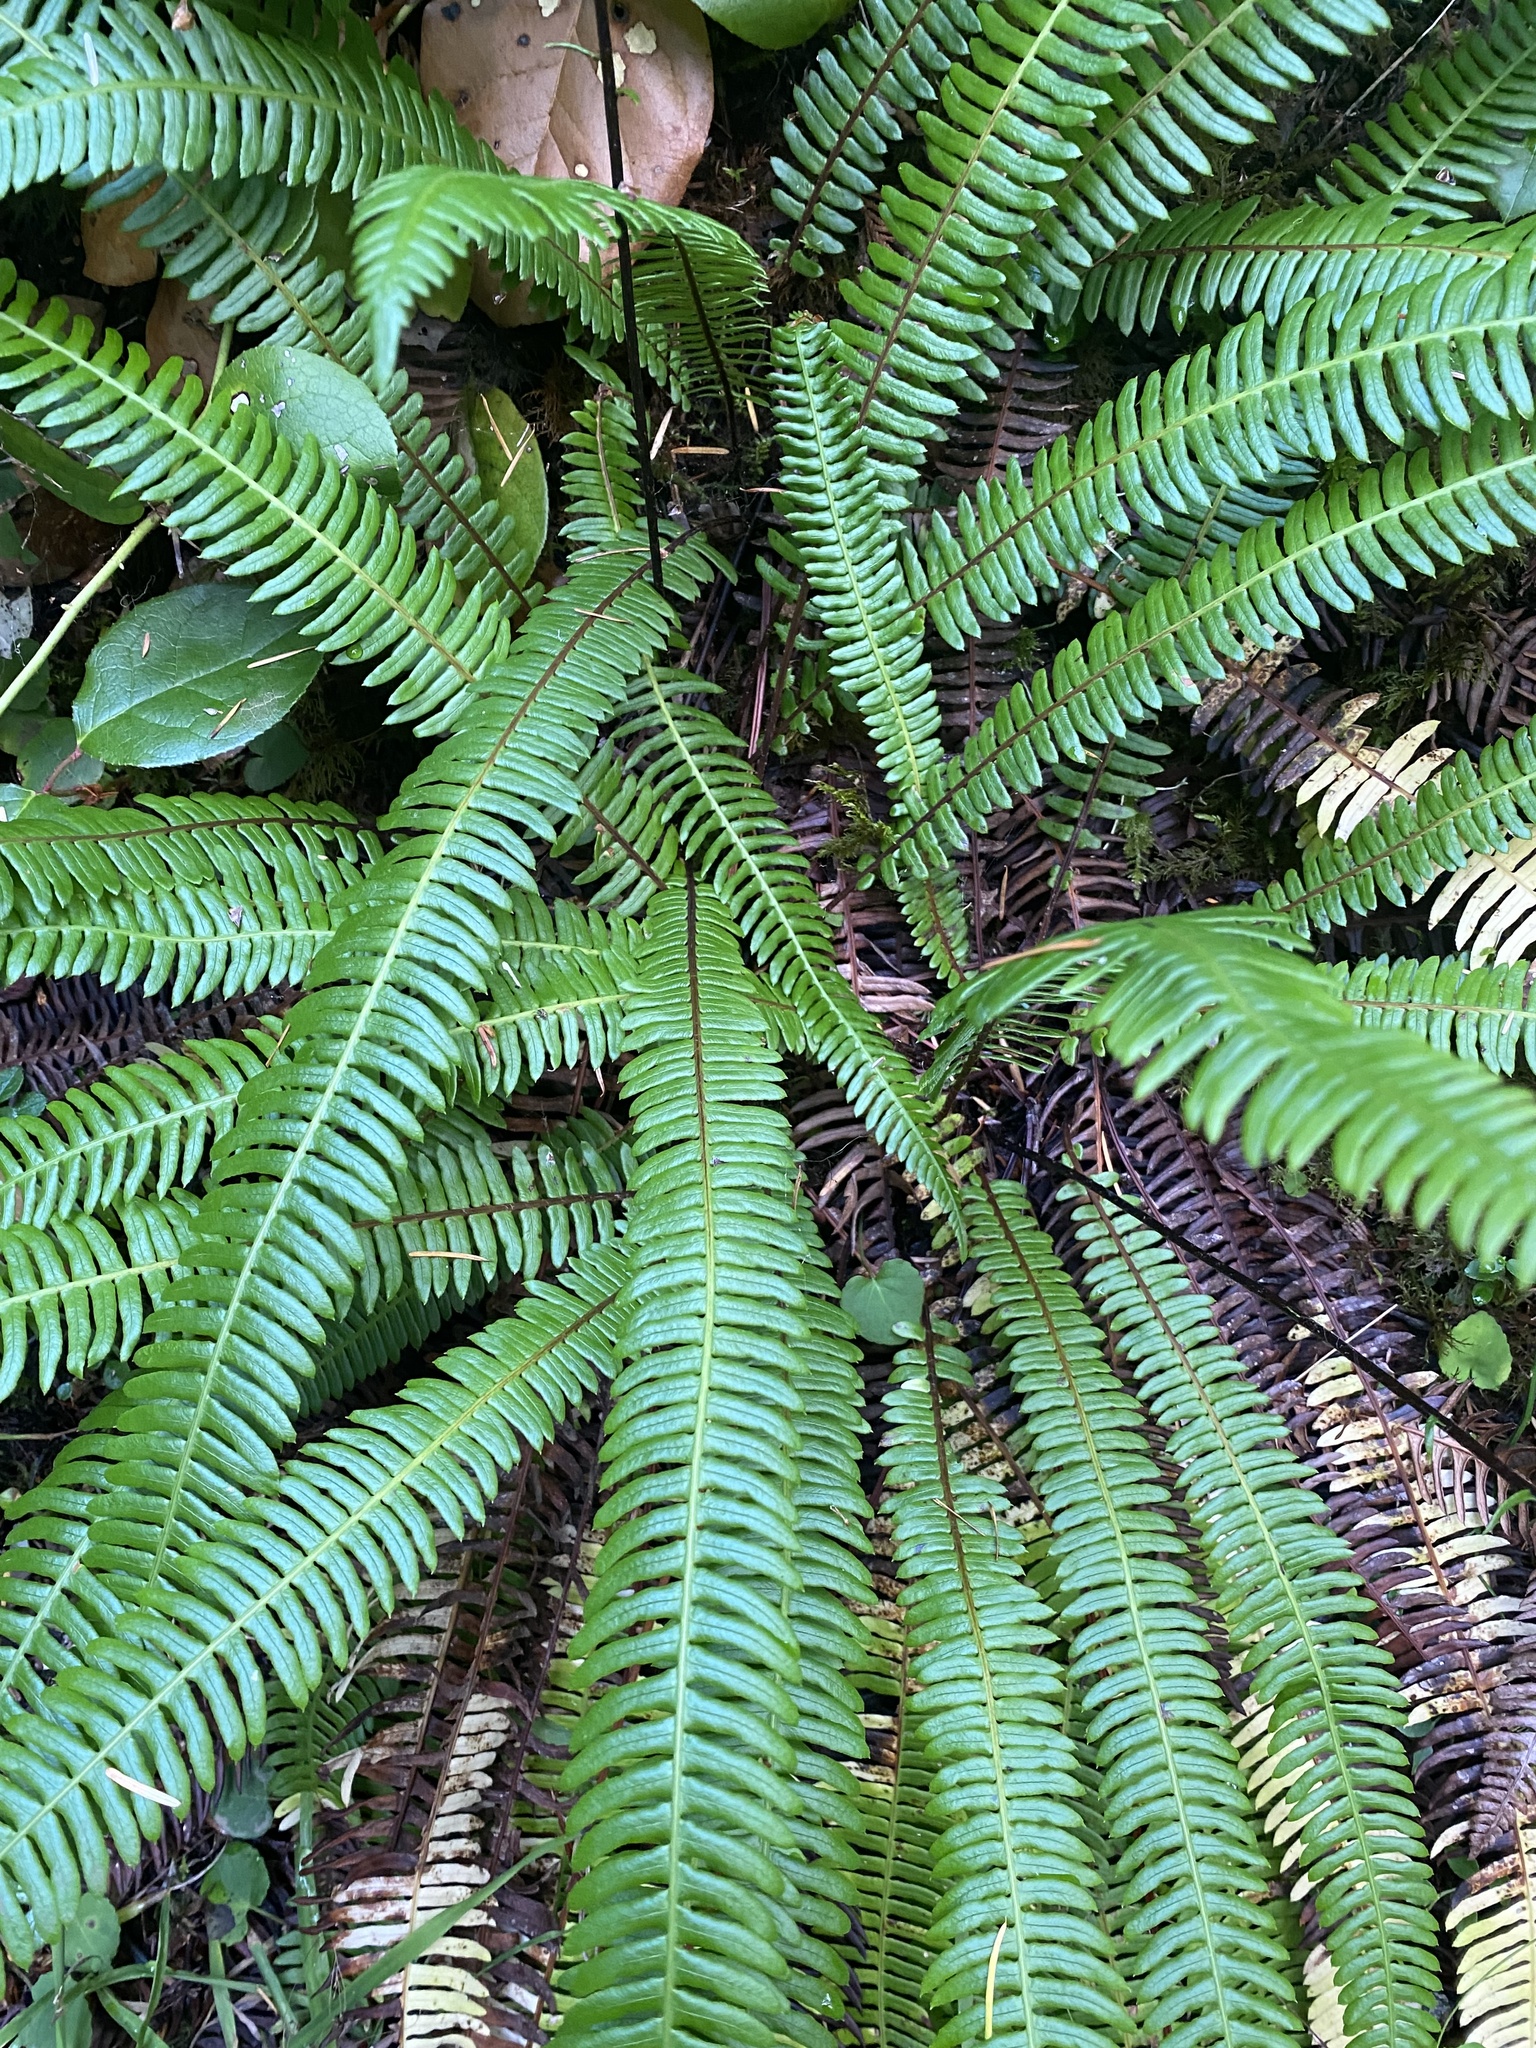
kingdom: Plantae
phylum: Tracheophyta
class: Polypodiopsida
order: Polypodiales
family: Blechnaceae
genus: Struthiopteris
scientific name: Struthiopteris spicant
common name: Deer fern
